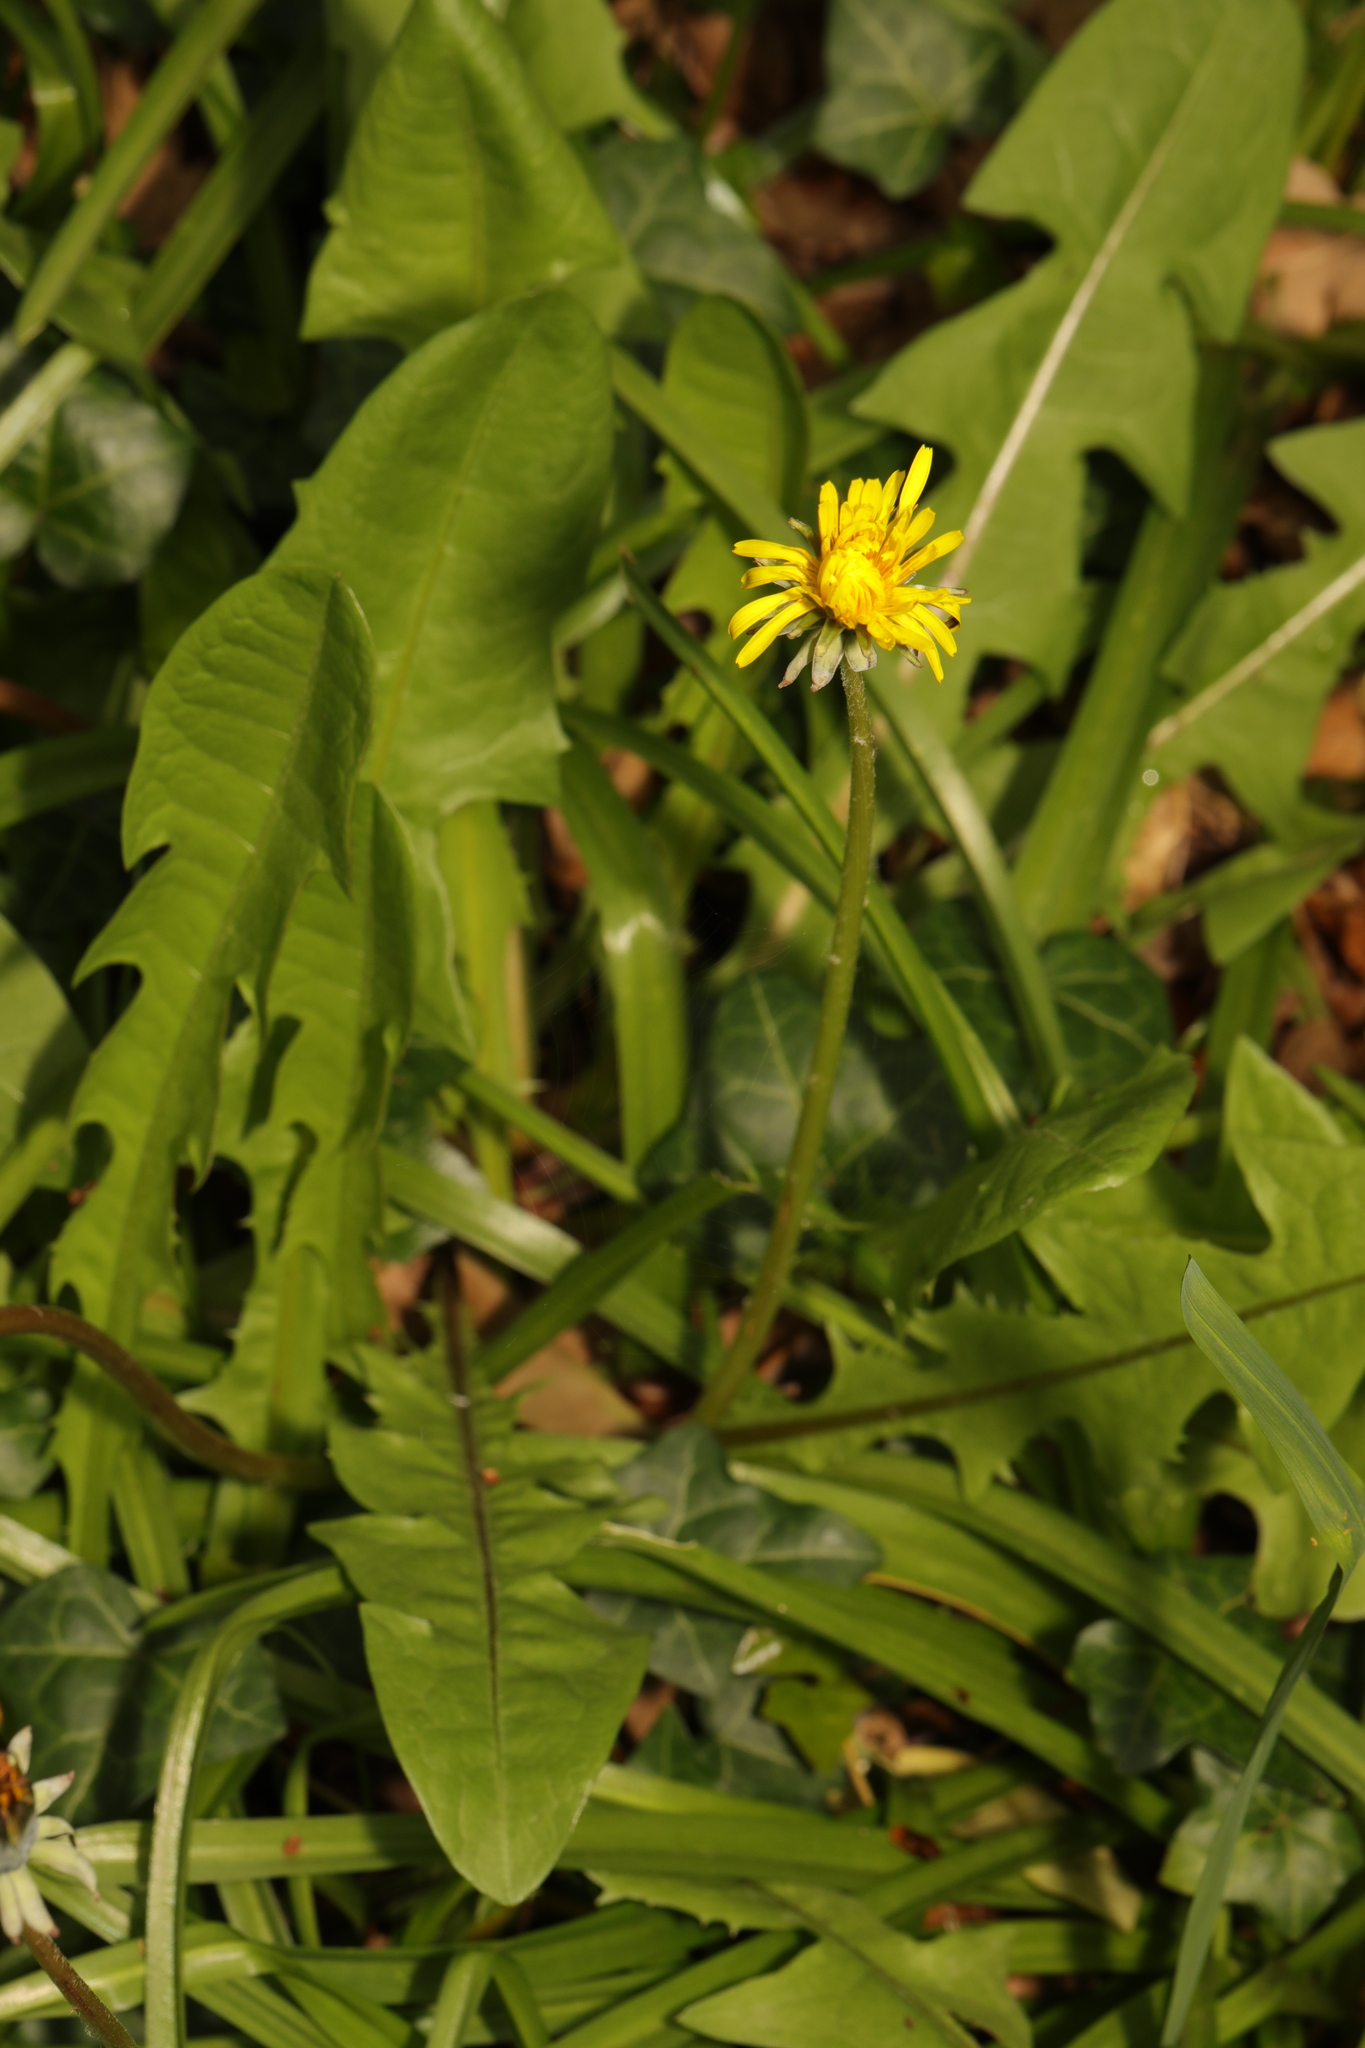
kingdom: Plantae
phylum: Tracheophyta
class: Magnoliopsida
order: Asterales
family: Asteraceae
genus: Taraxacum
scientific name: Taraxacum officinale
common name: Common dandelion
